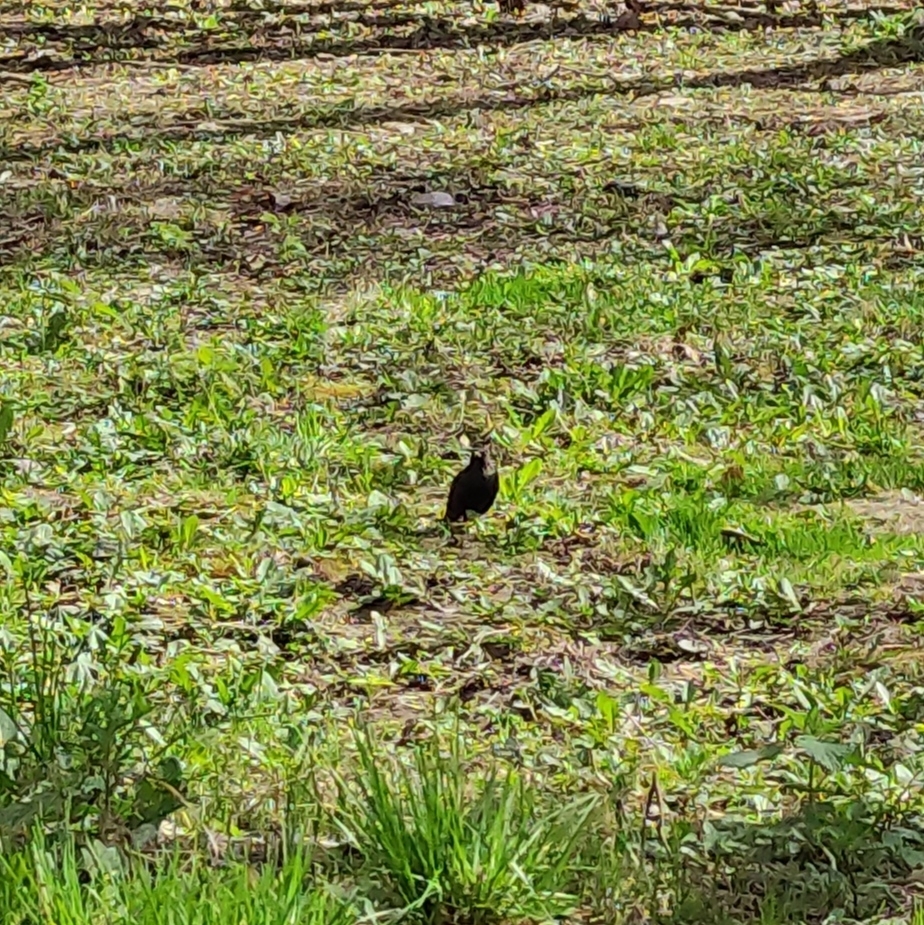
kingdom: Animalia
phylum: Chordata
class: Aves
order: Passeriformes
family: Turdidae
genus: Turdus
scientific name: Turdus merula
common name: Common blackbird
